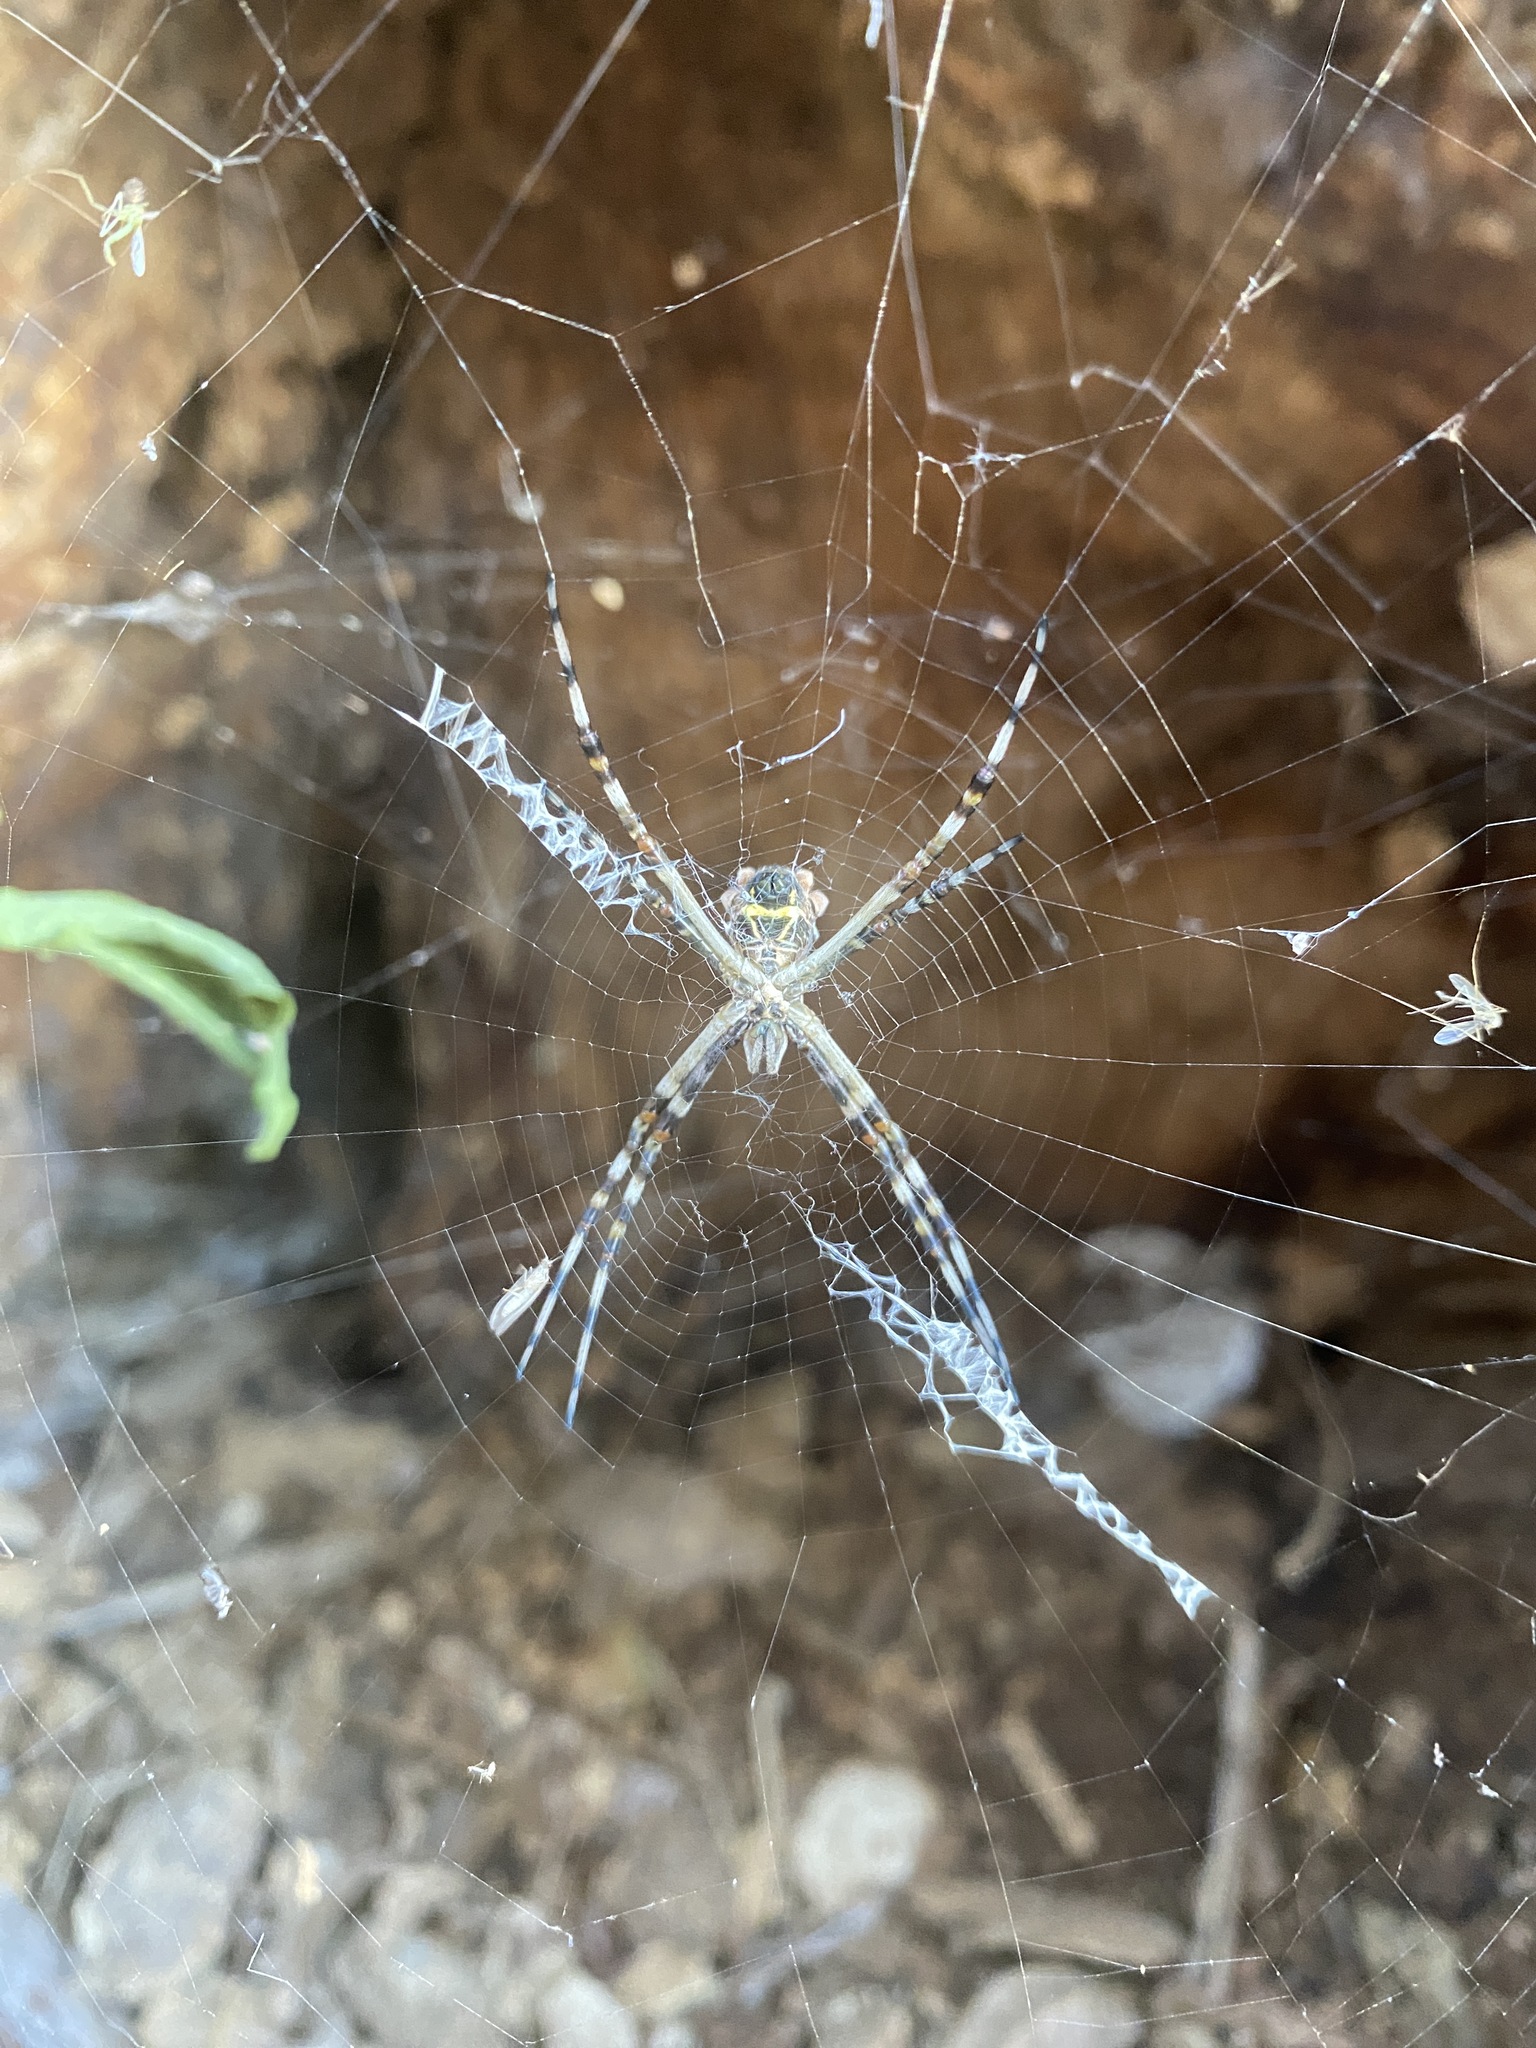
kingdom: Animalia
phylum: Arthropoda
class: Arachnida
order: Araneae
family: Araneidae
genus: Argiope
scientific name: Argiope argentata
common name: Orb weavers
